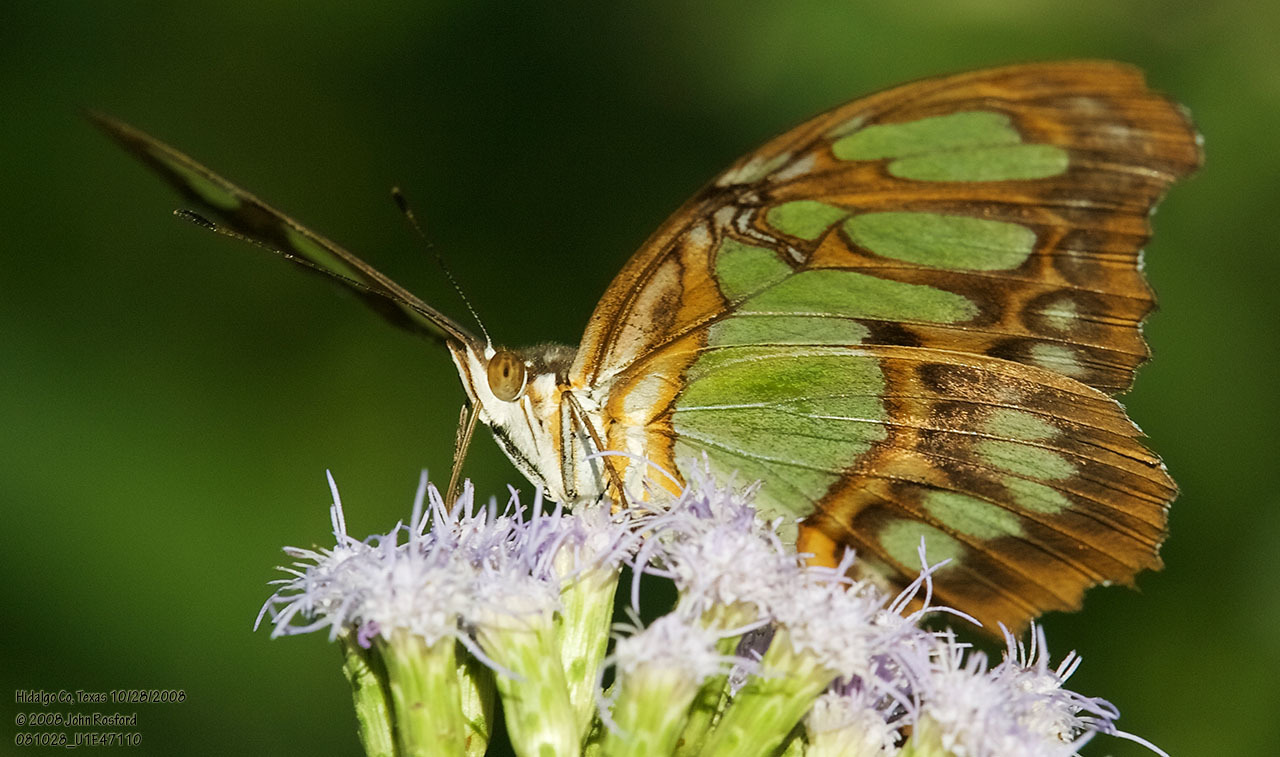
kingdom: Animalia
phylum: Arthropoda
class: Insecta
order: Lepidoptera
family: Nymphalidae
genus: Siproeta
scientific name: Siproeta stelenes
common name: Malachite
